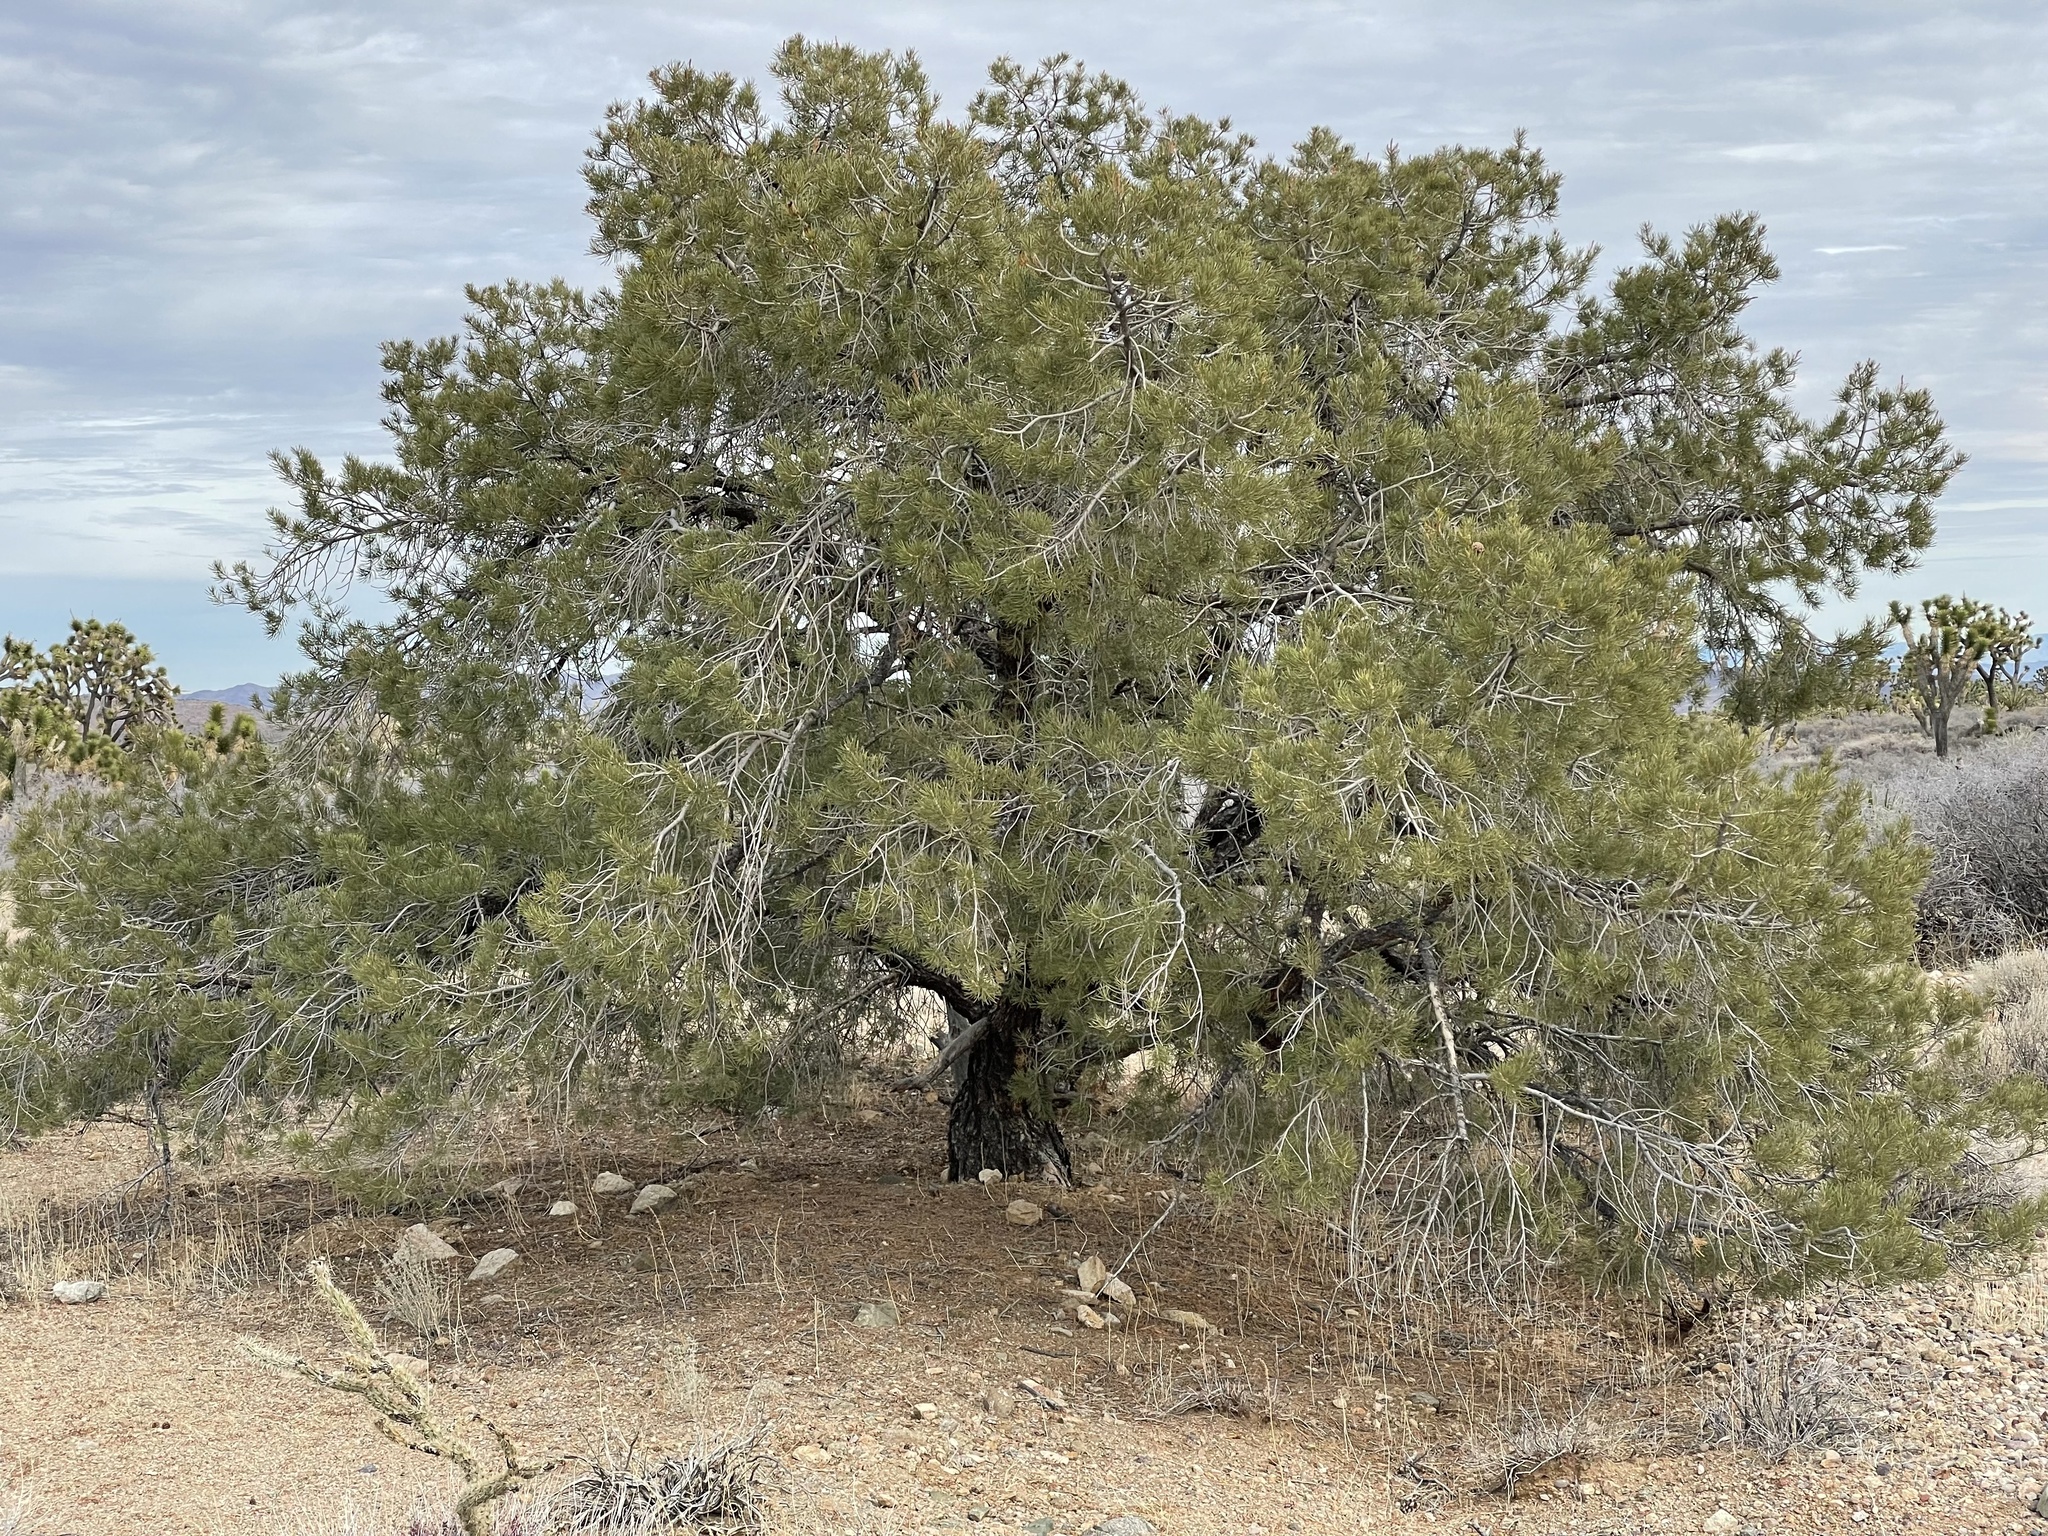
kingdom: Plantae
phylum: Tracheophyta
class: Pinopsida
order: Pinales
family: Pinaceae
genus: Pinus
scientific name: Pinus monophylla
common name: One-leaved nut pine
